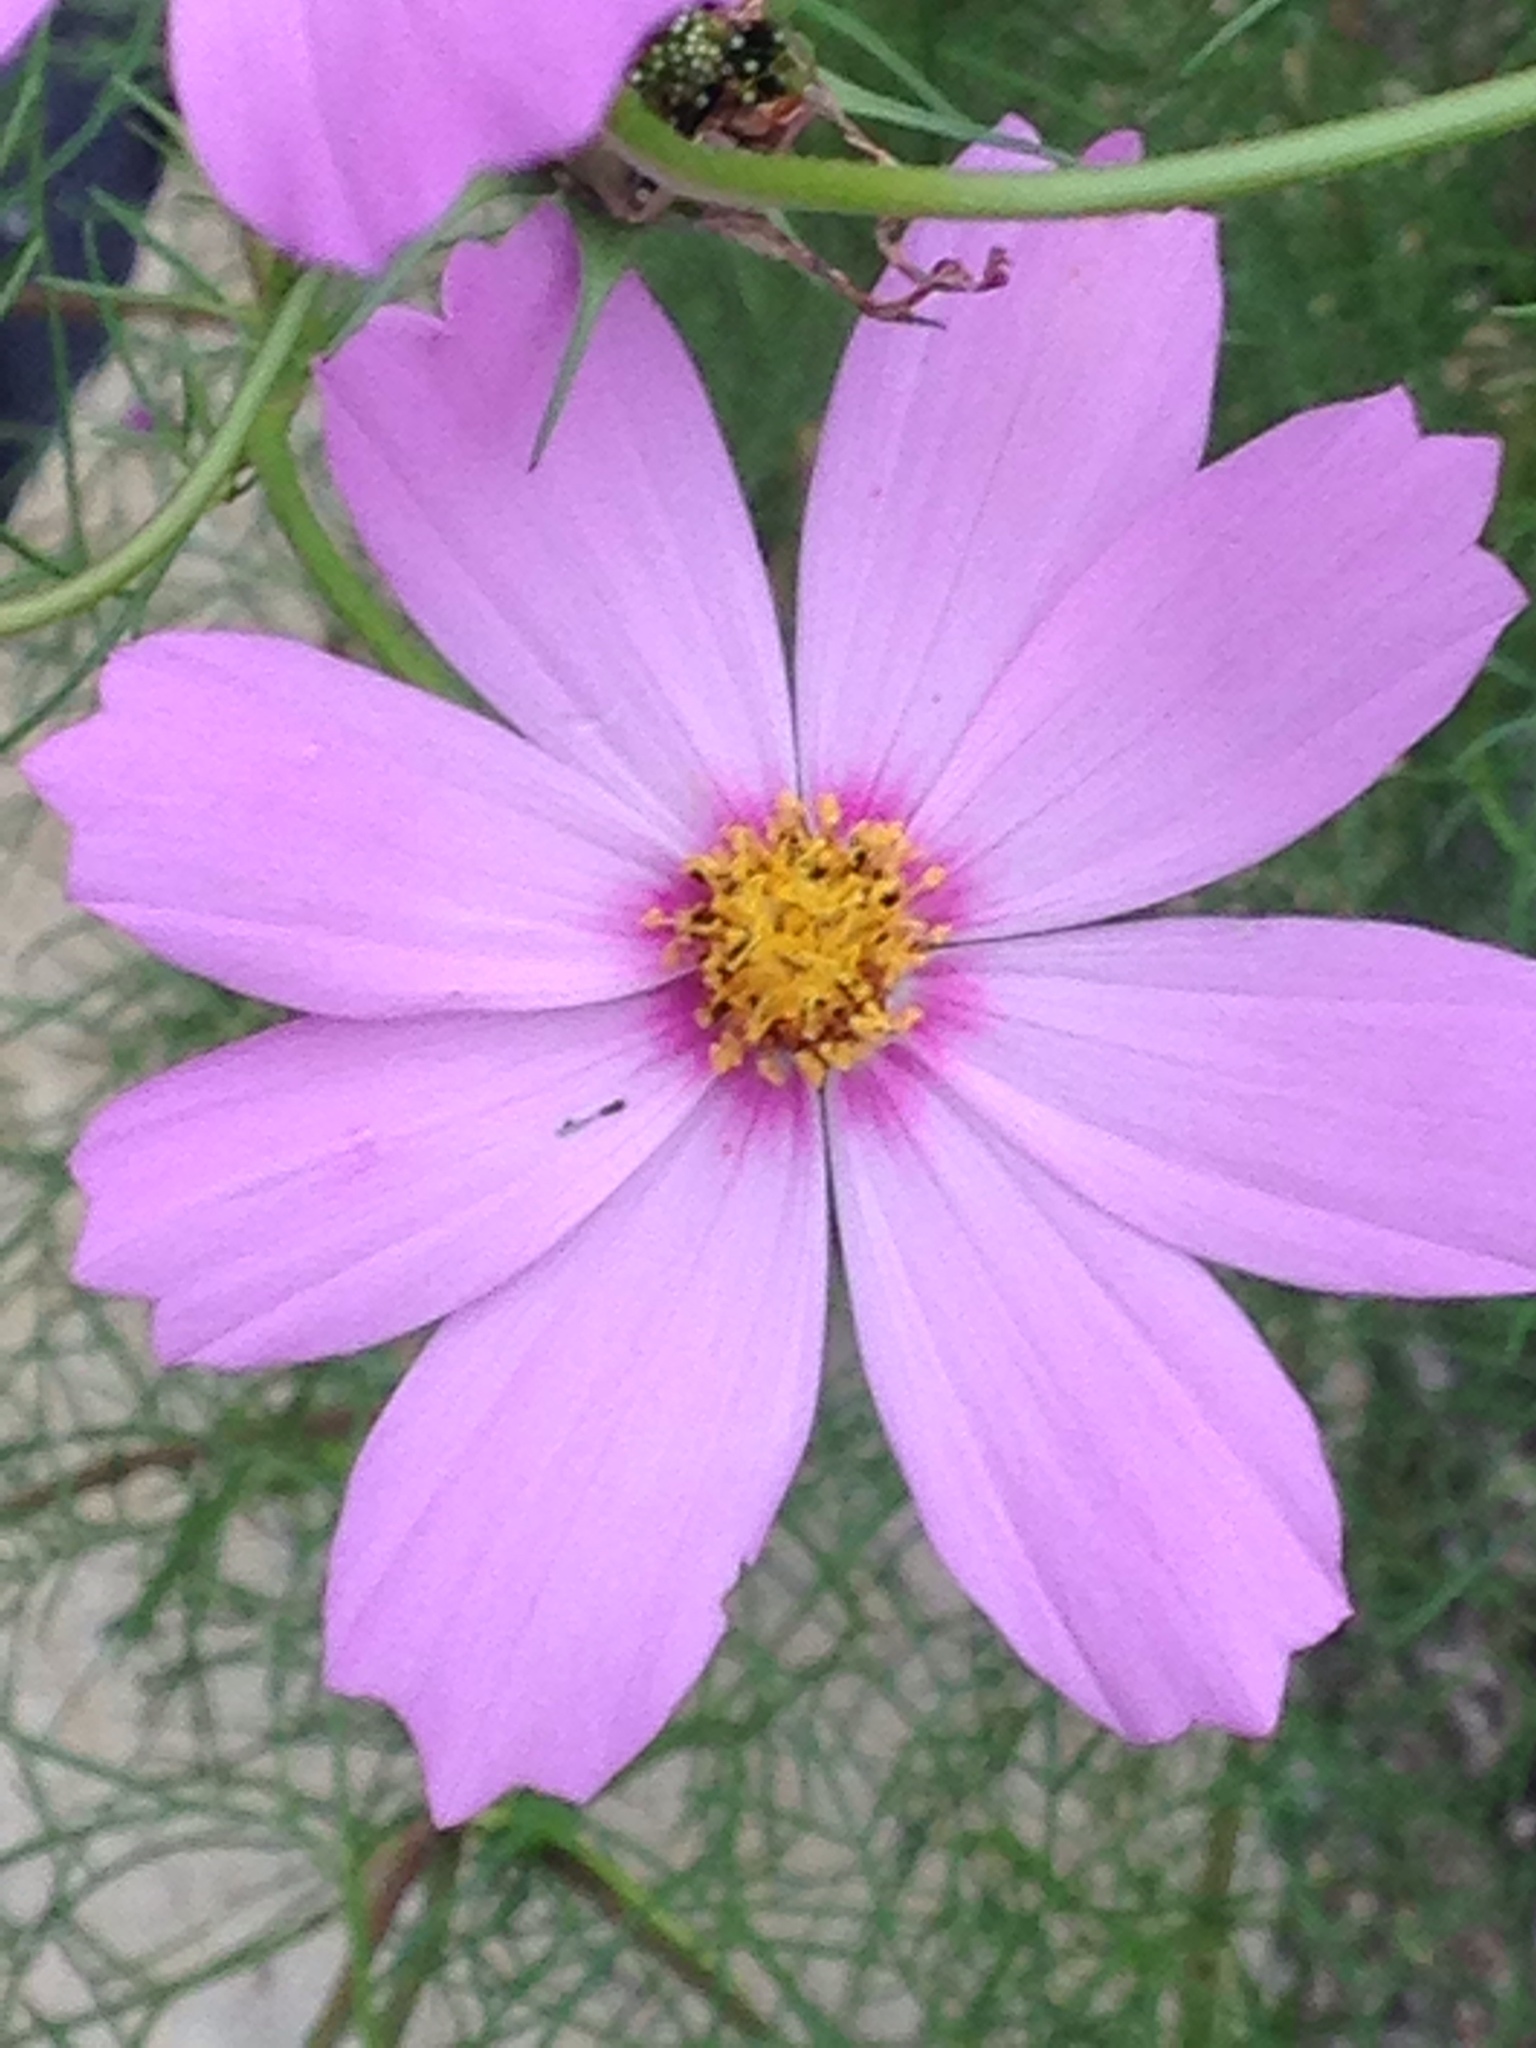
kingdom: Plantae
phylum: Tracheophyta
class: Magnoliopsida
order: Asterales
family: Asteraceae
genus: Cosmos
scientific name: Cosmos bipinnatus
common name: Garden cosmos
